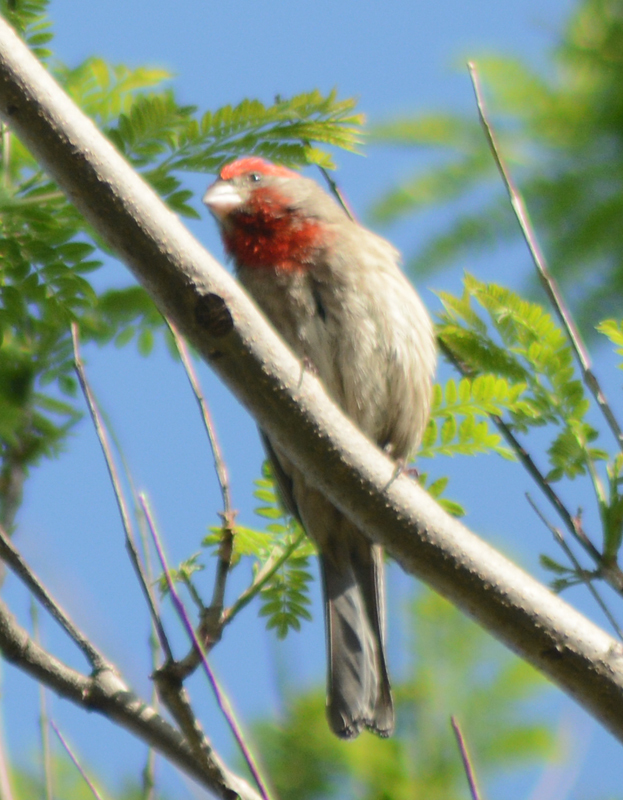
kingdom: Animalia
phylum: Chordata
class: Aves
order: Passeriformes
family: Fringillidae
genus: Haemorhous
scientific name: Haemorhous mexicanus
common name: House finch
